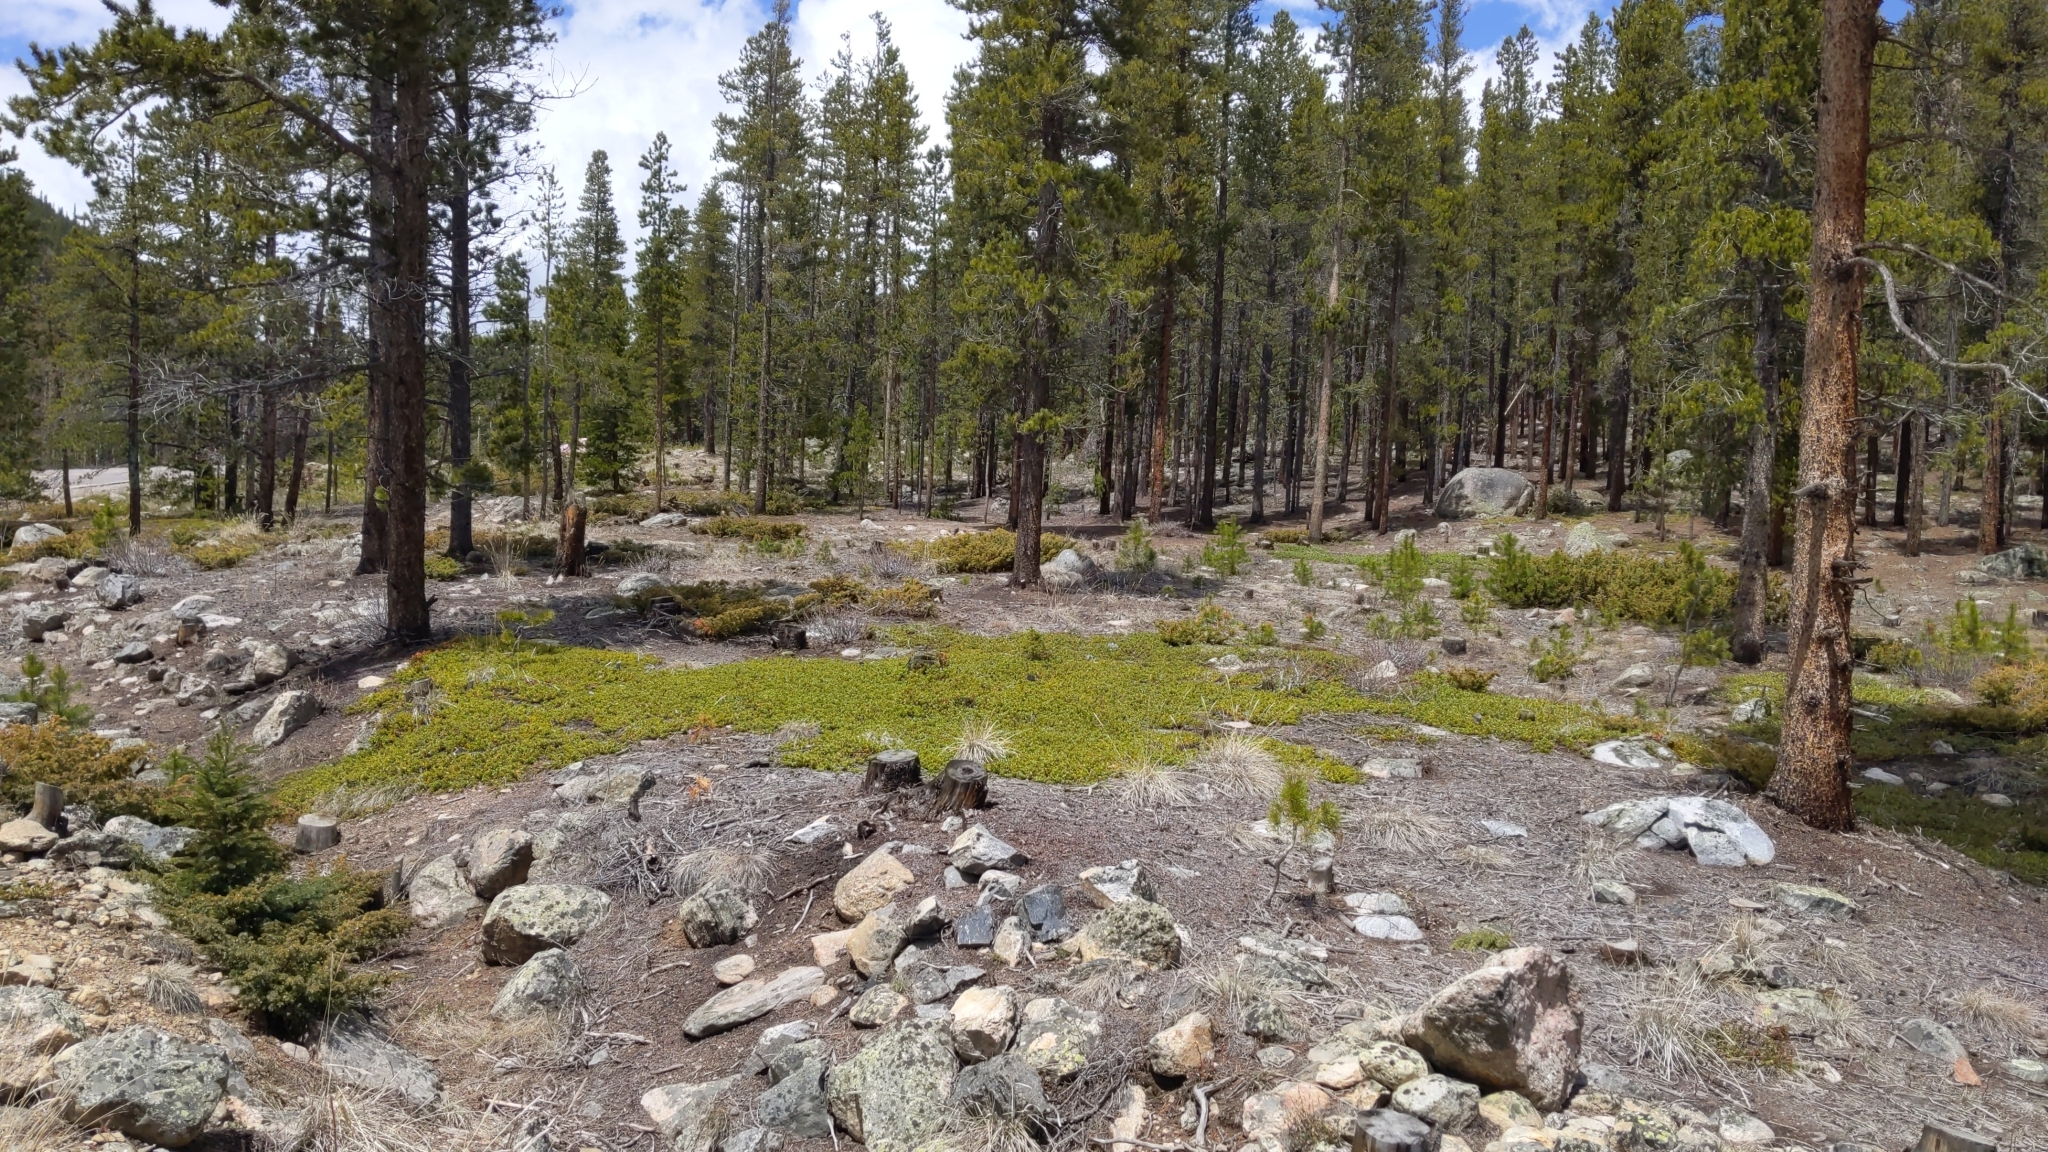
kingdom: Plantae
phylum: Tracheophyta
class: Magnoliopsida
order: Ericales
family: Ericaceae
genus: Arctostaphylos
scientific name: Arctostaphylos uva-ursi
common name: Bearberry
